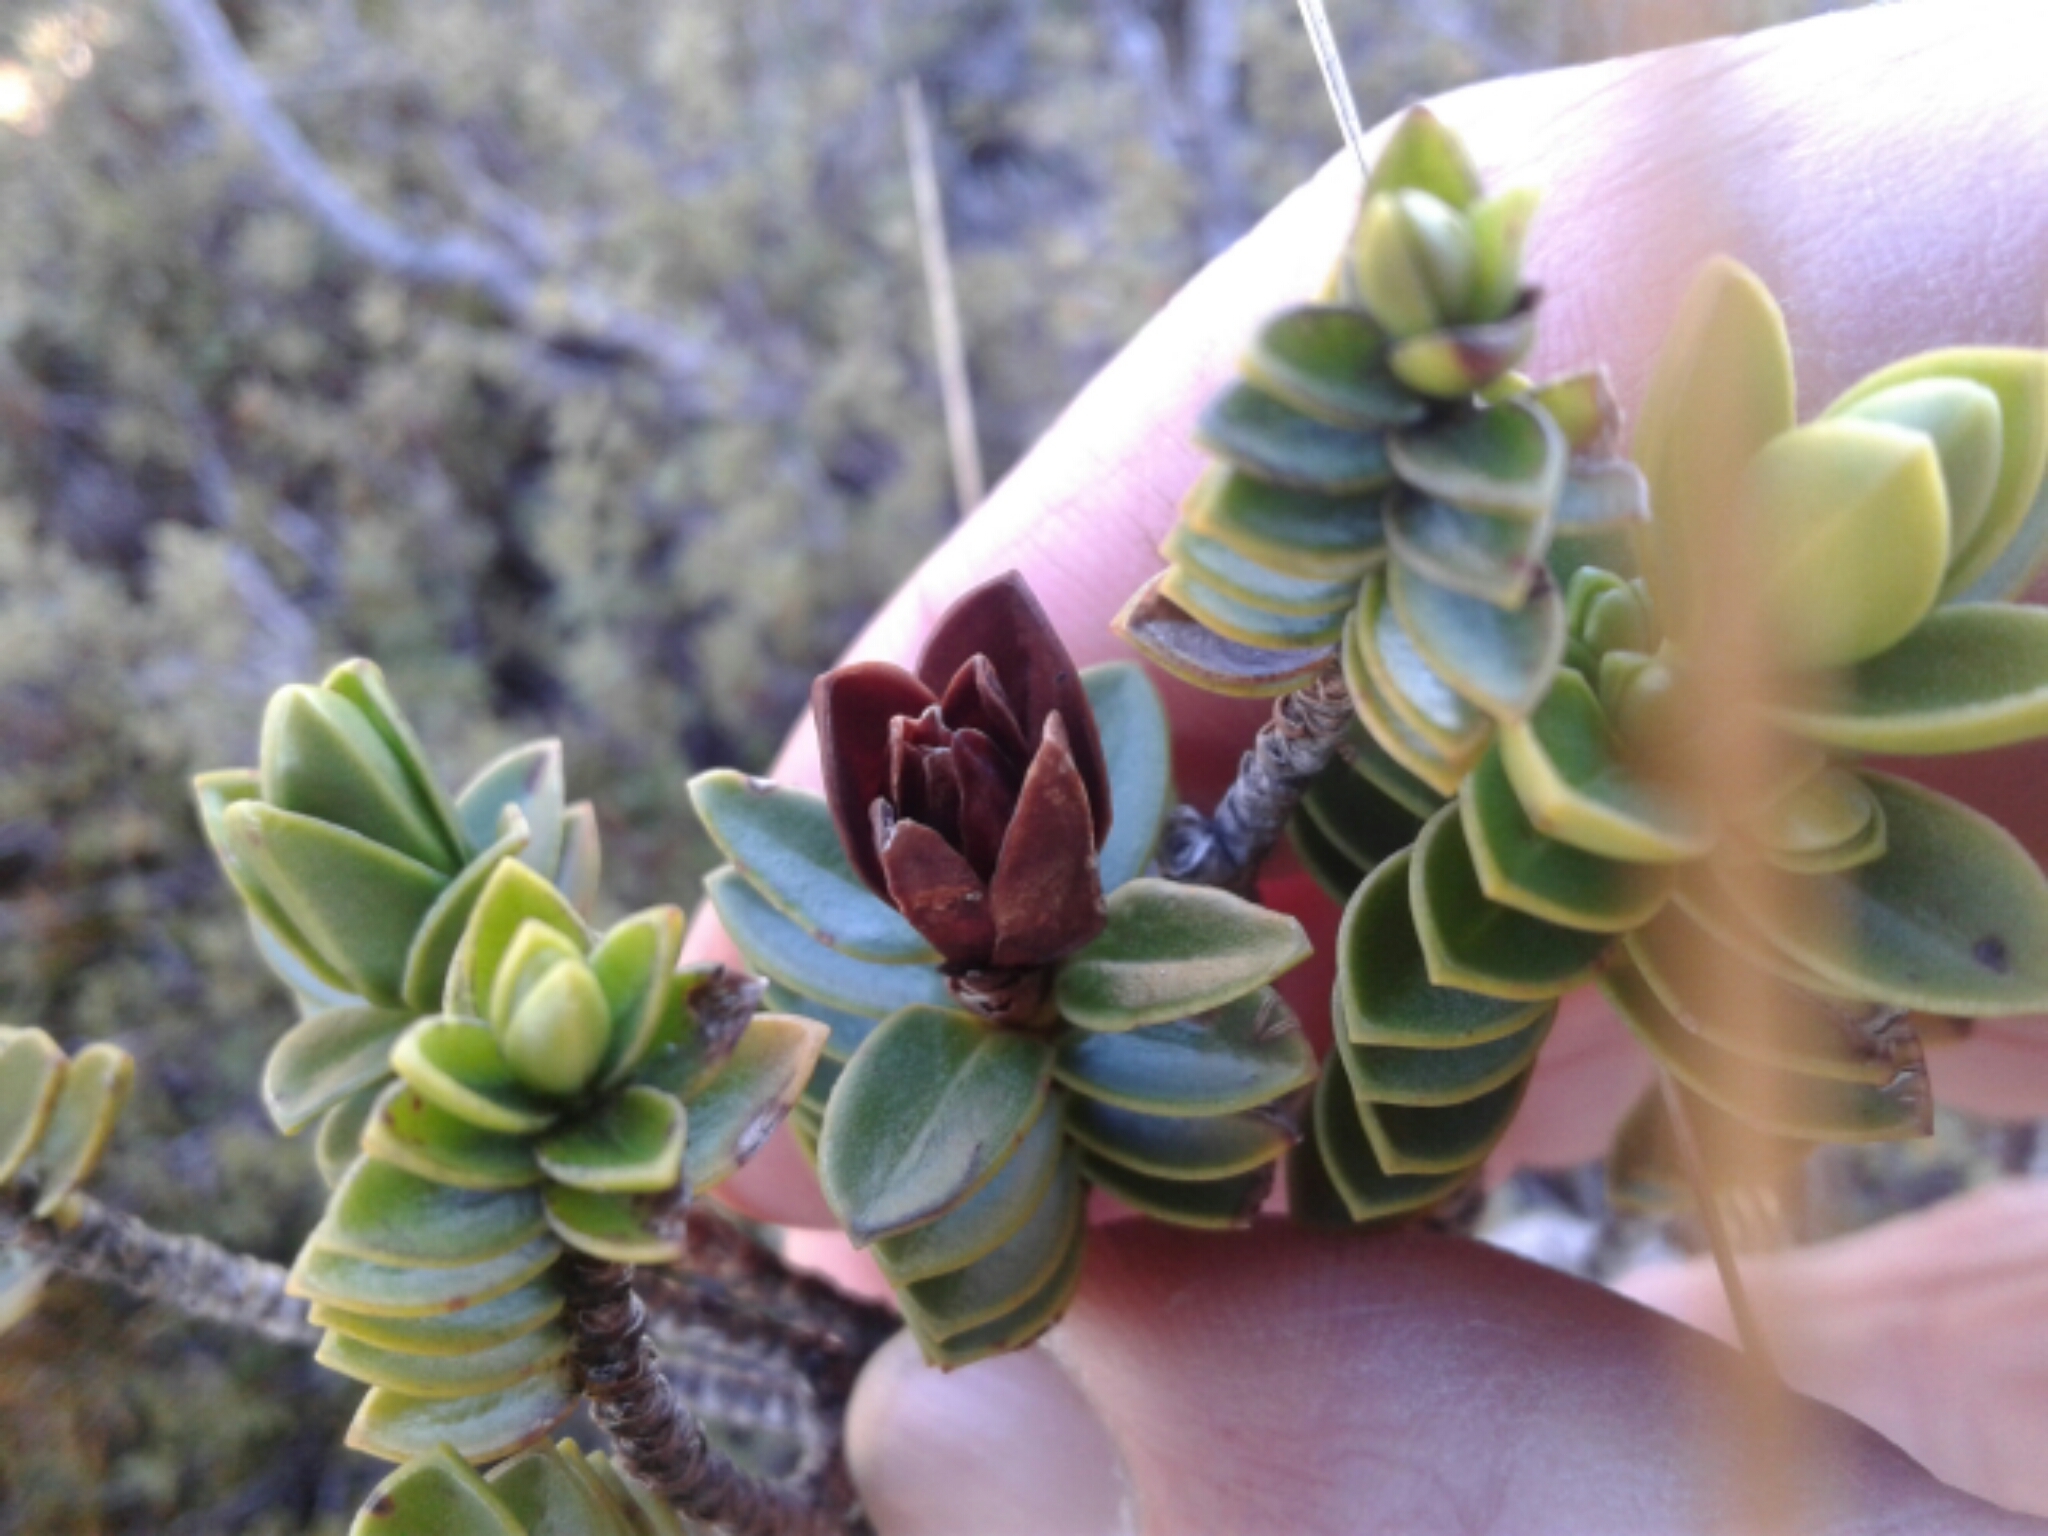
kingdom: Plantae
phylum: Tracheophyta
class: Magnoliopsida
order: Lamiales
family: Plantaginaceae
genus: Veronica
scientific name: Veronica odora
